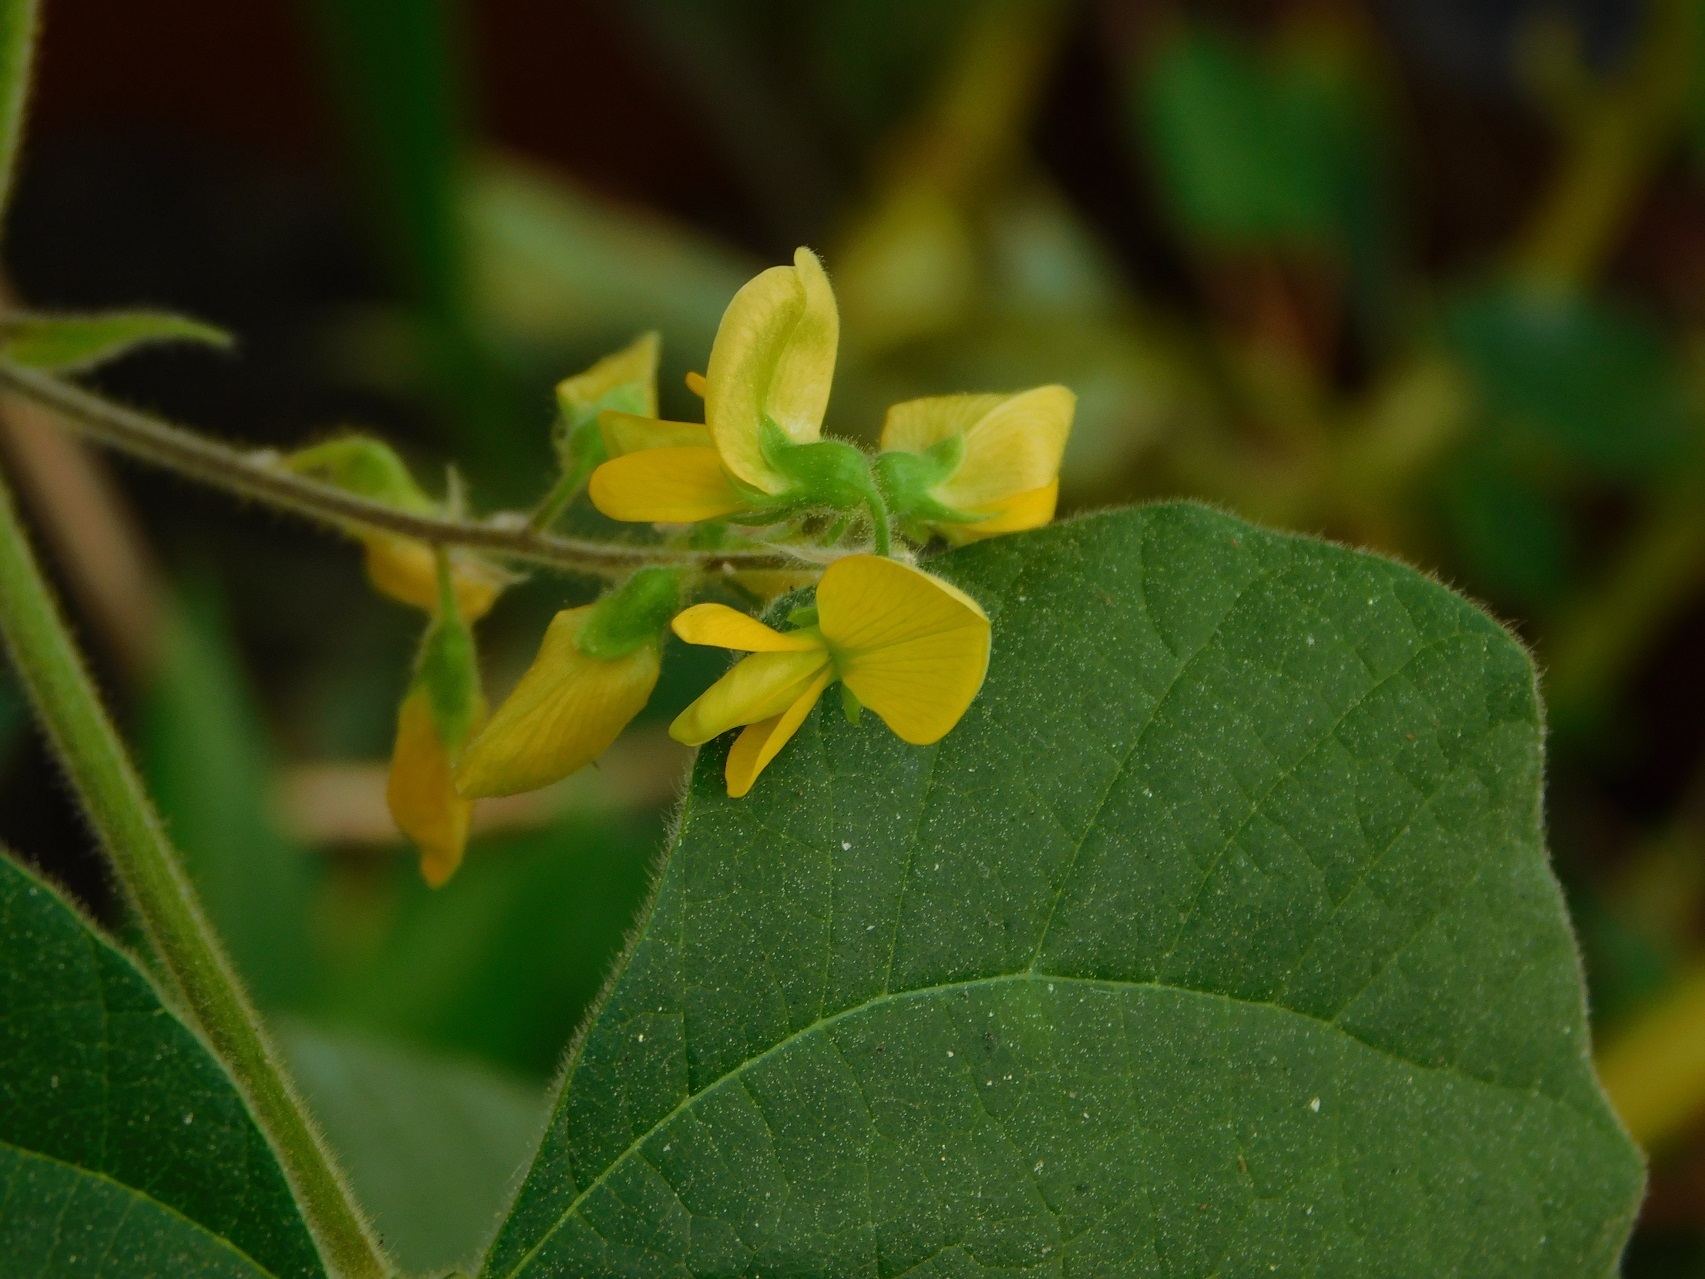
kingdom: Plantae
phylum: Tracheophyta
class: Magnoliopsida
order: Fabales
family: Fabaceae
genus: Rhynchosia
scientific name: Rhynchosia erythrinoides
